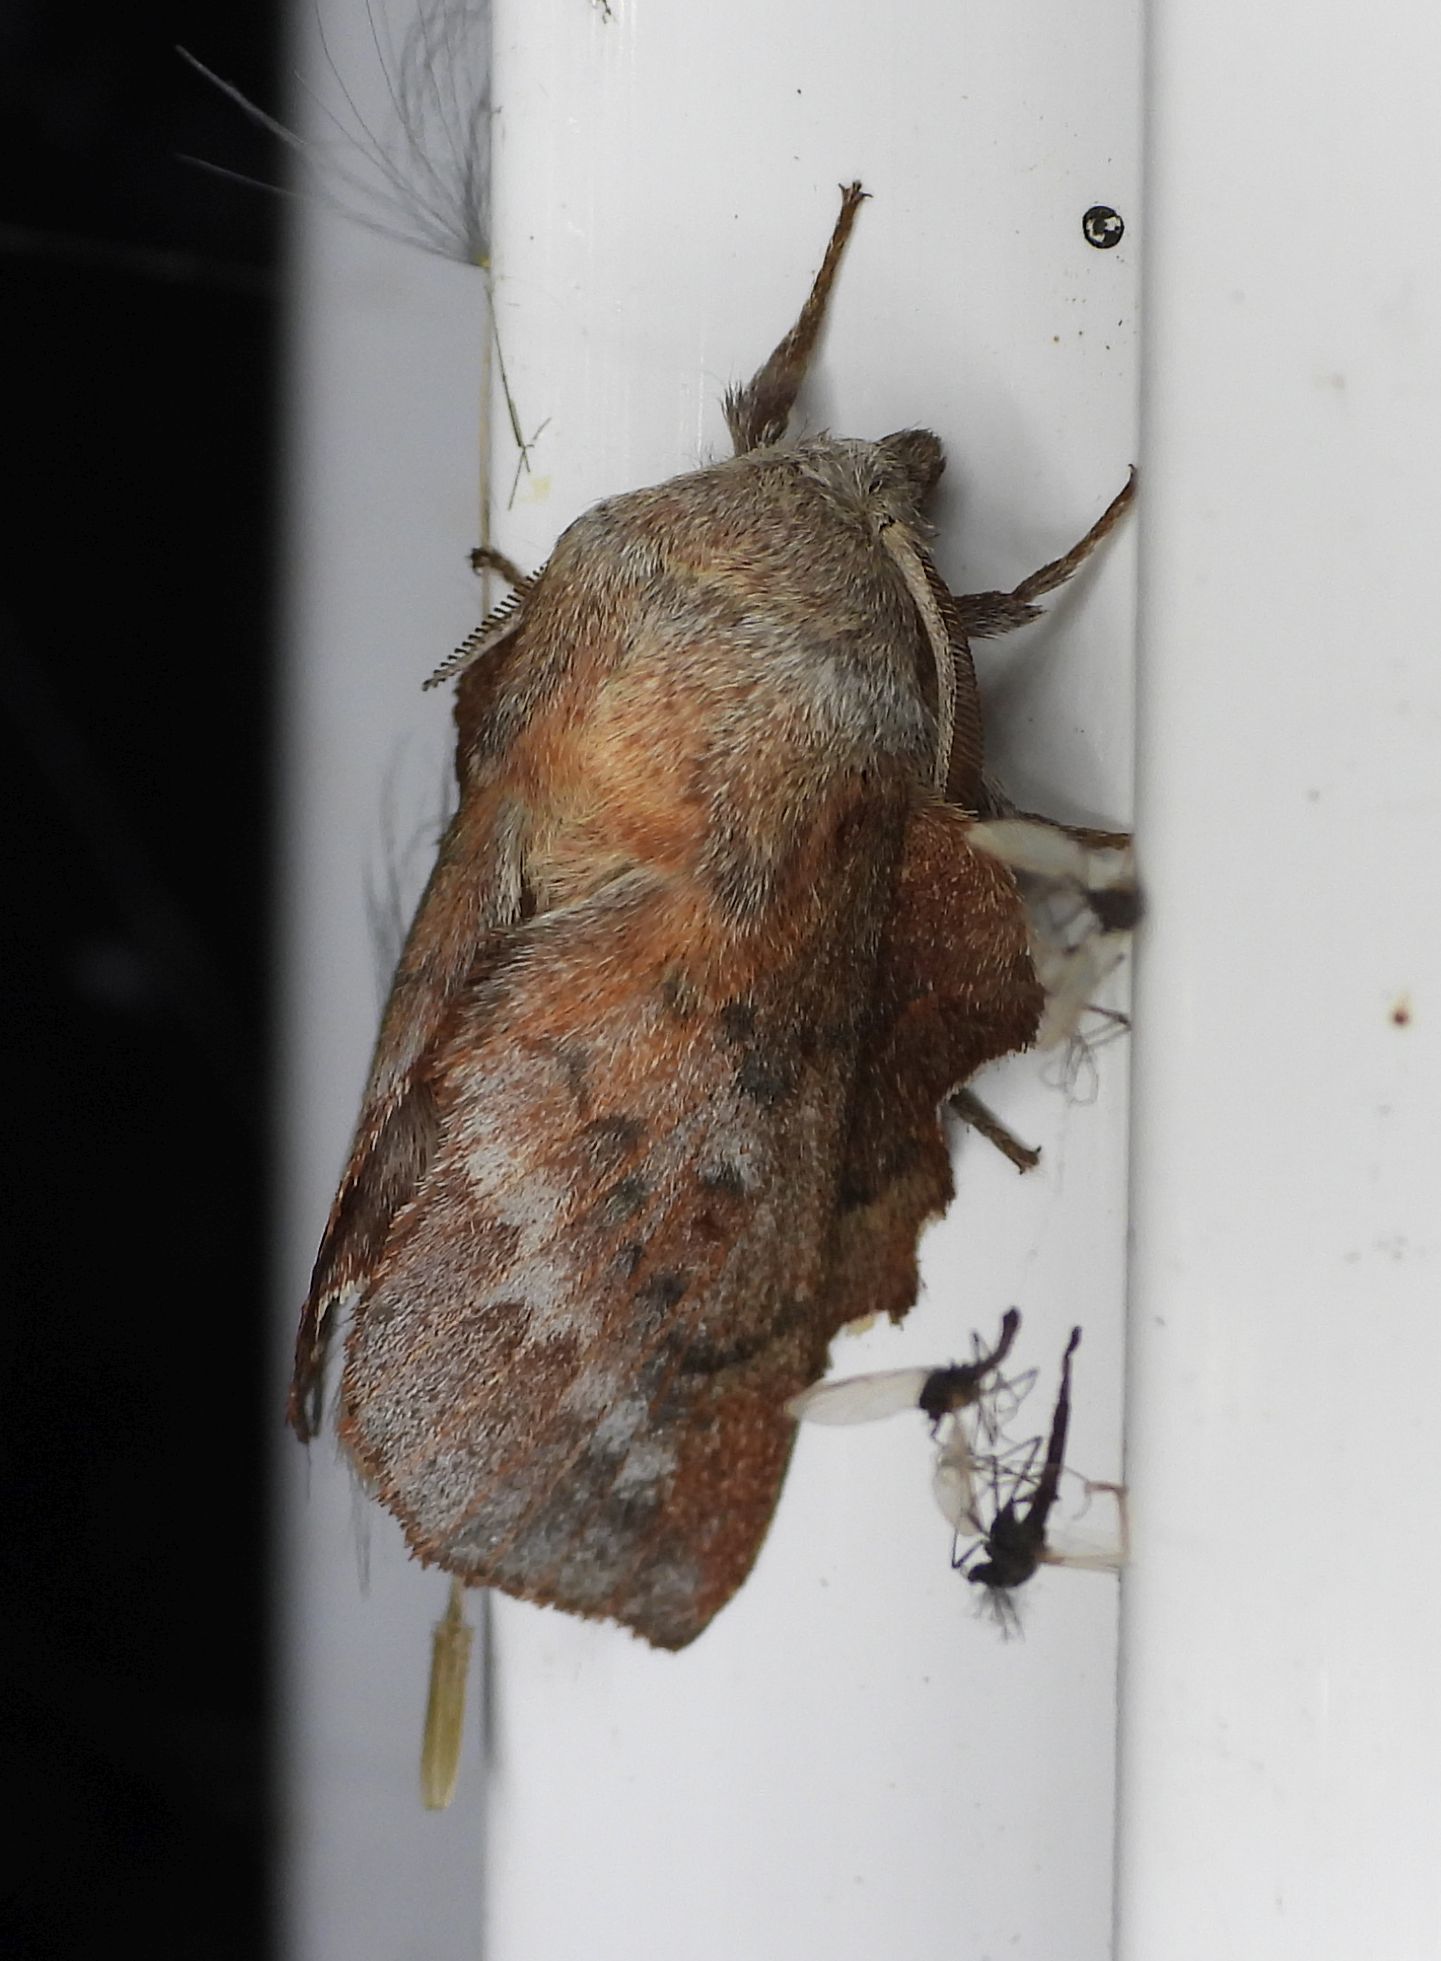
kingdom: Animalia
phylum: Arthropoda
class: Insecta
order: Lepidoptera
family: Lasiocampidae
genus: Phyllodesma
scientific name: Phyllodesma americana
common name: American lappet moth
